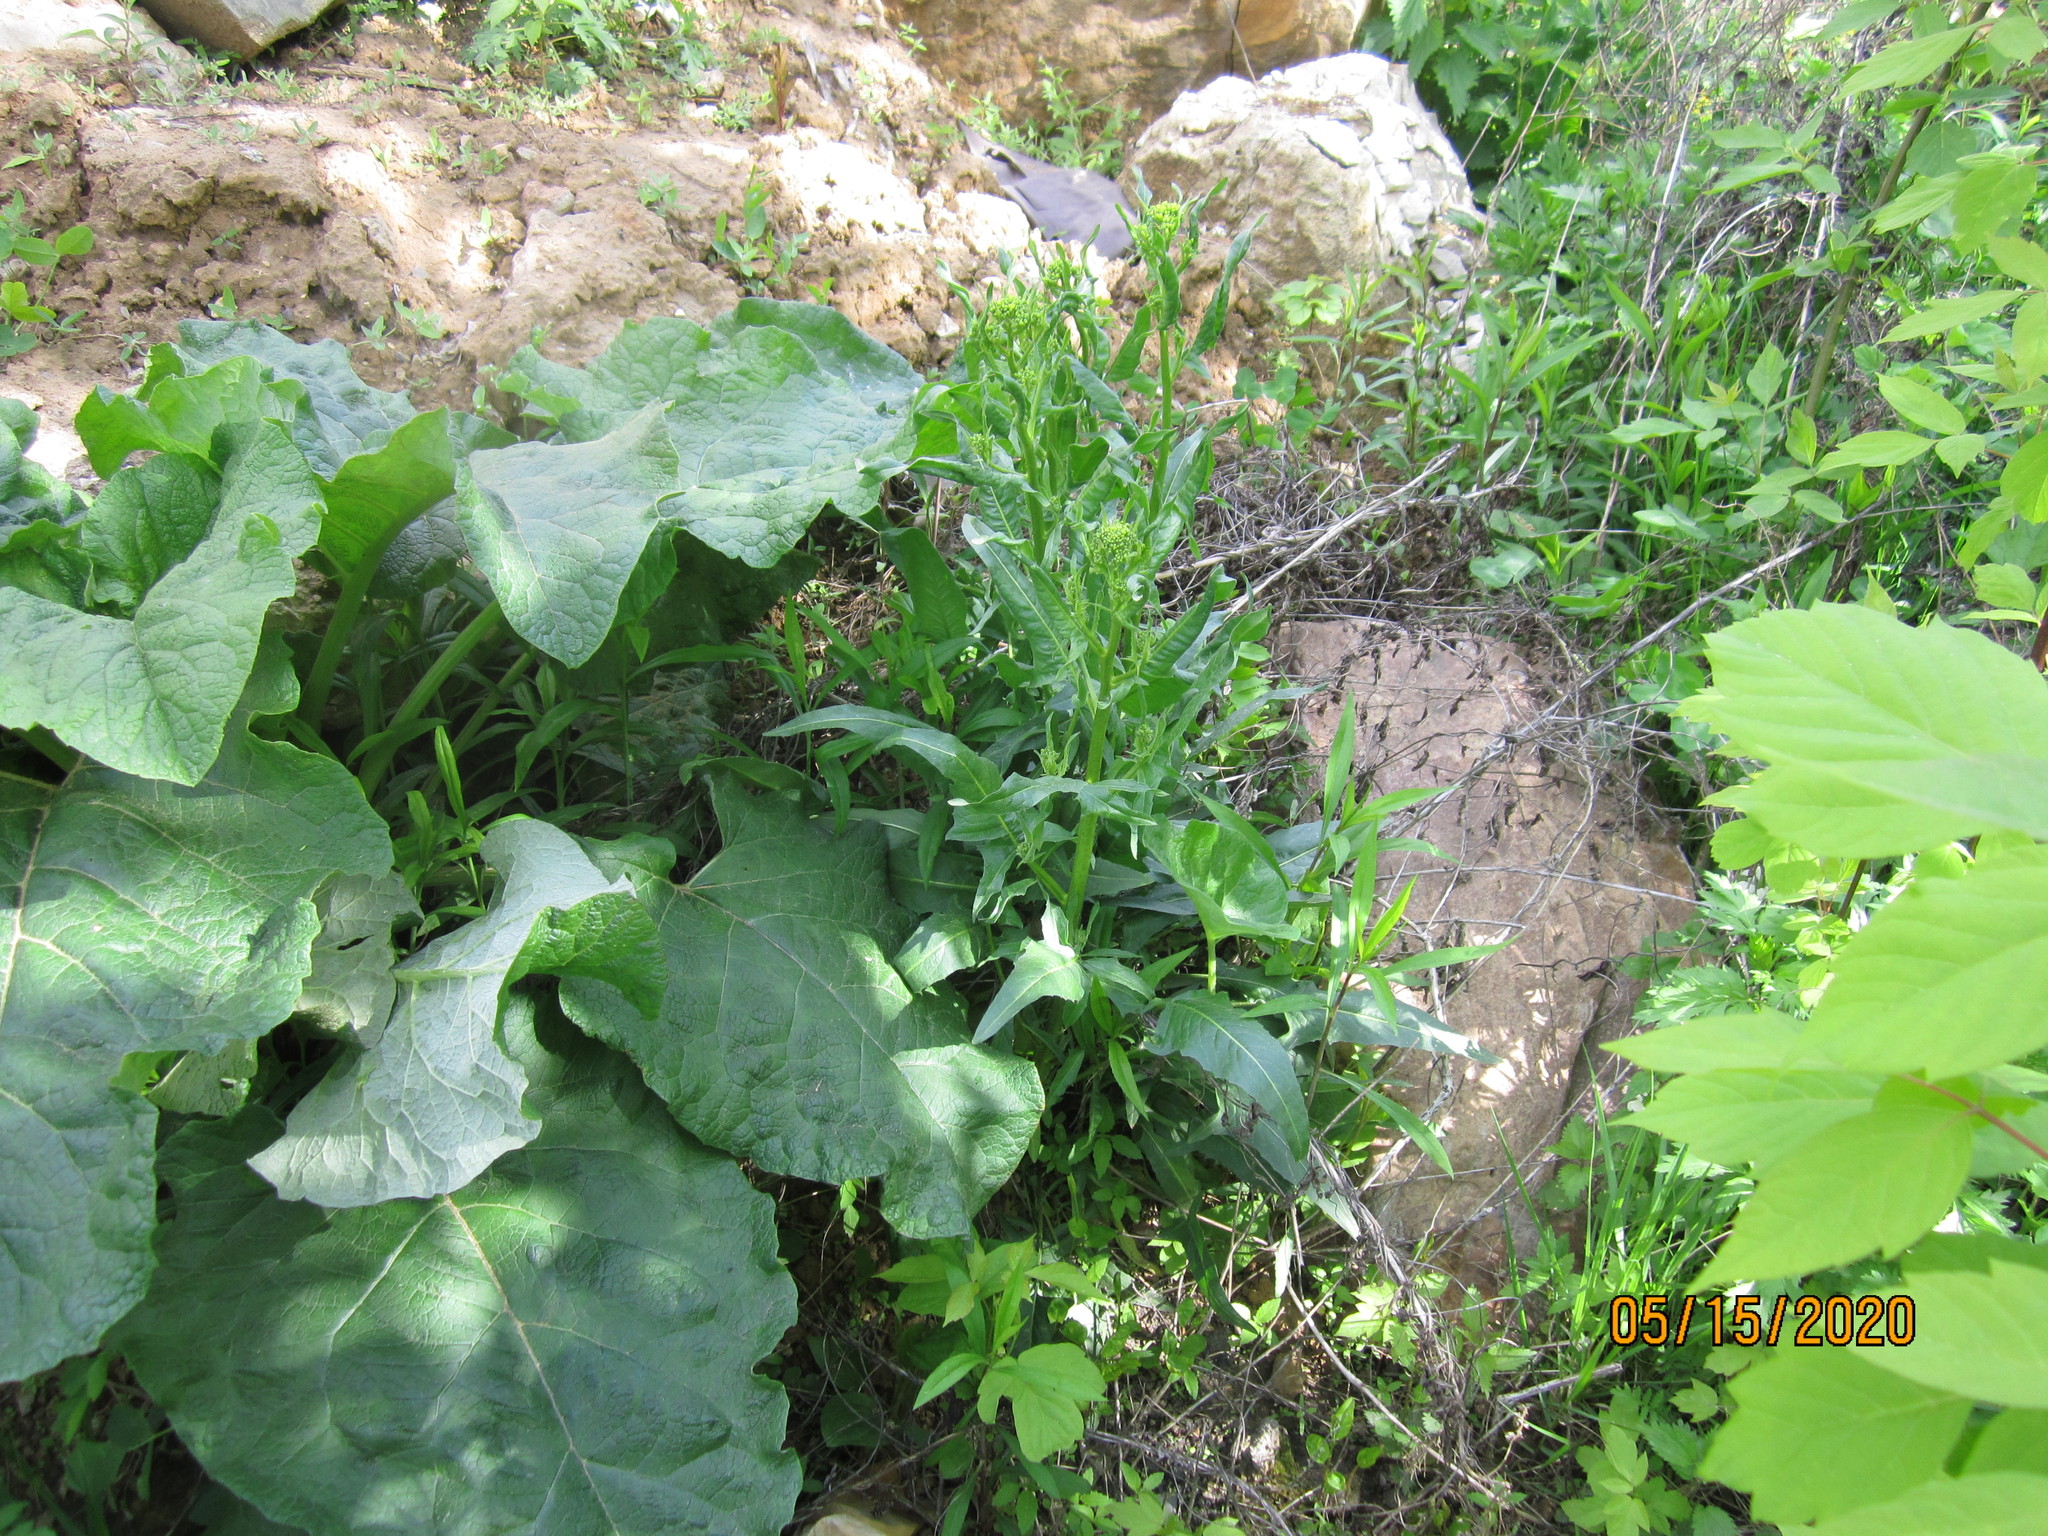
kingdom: Plantae
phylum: Tracheophyta
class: Magnoliopsida
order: Brassicales
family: Brassicaceae
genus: Bunias
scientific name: Bunias orientalis
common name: Warty-cabbage
